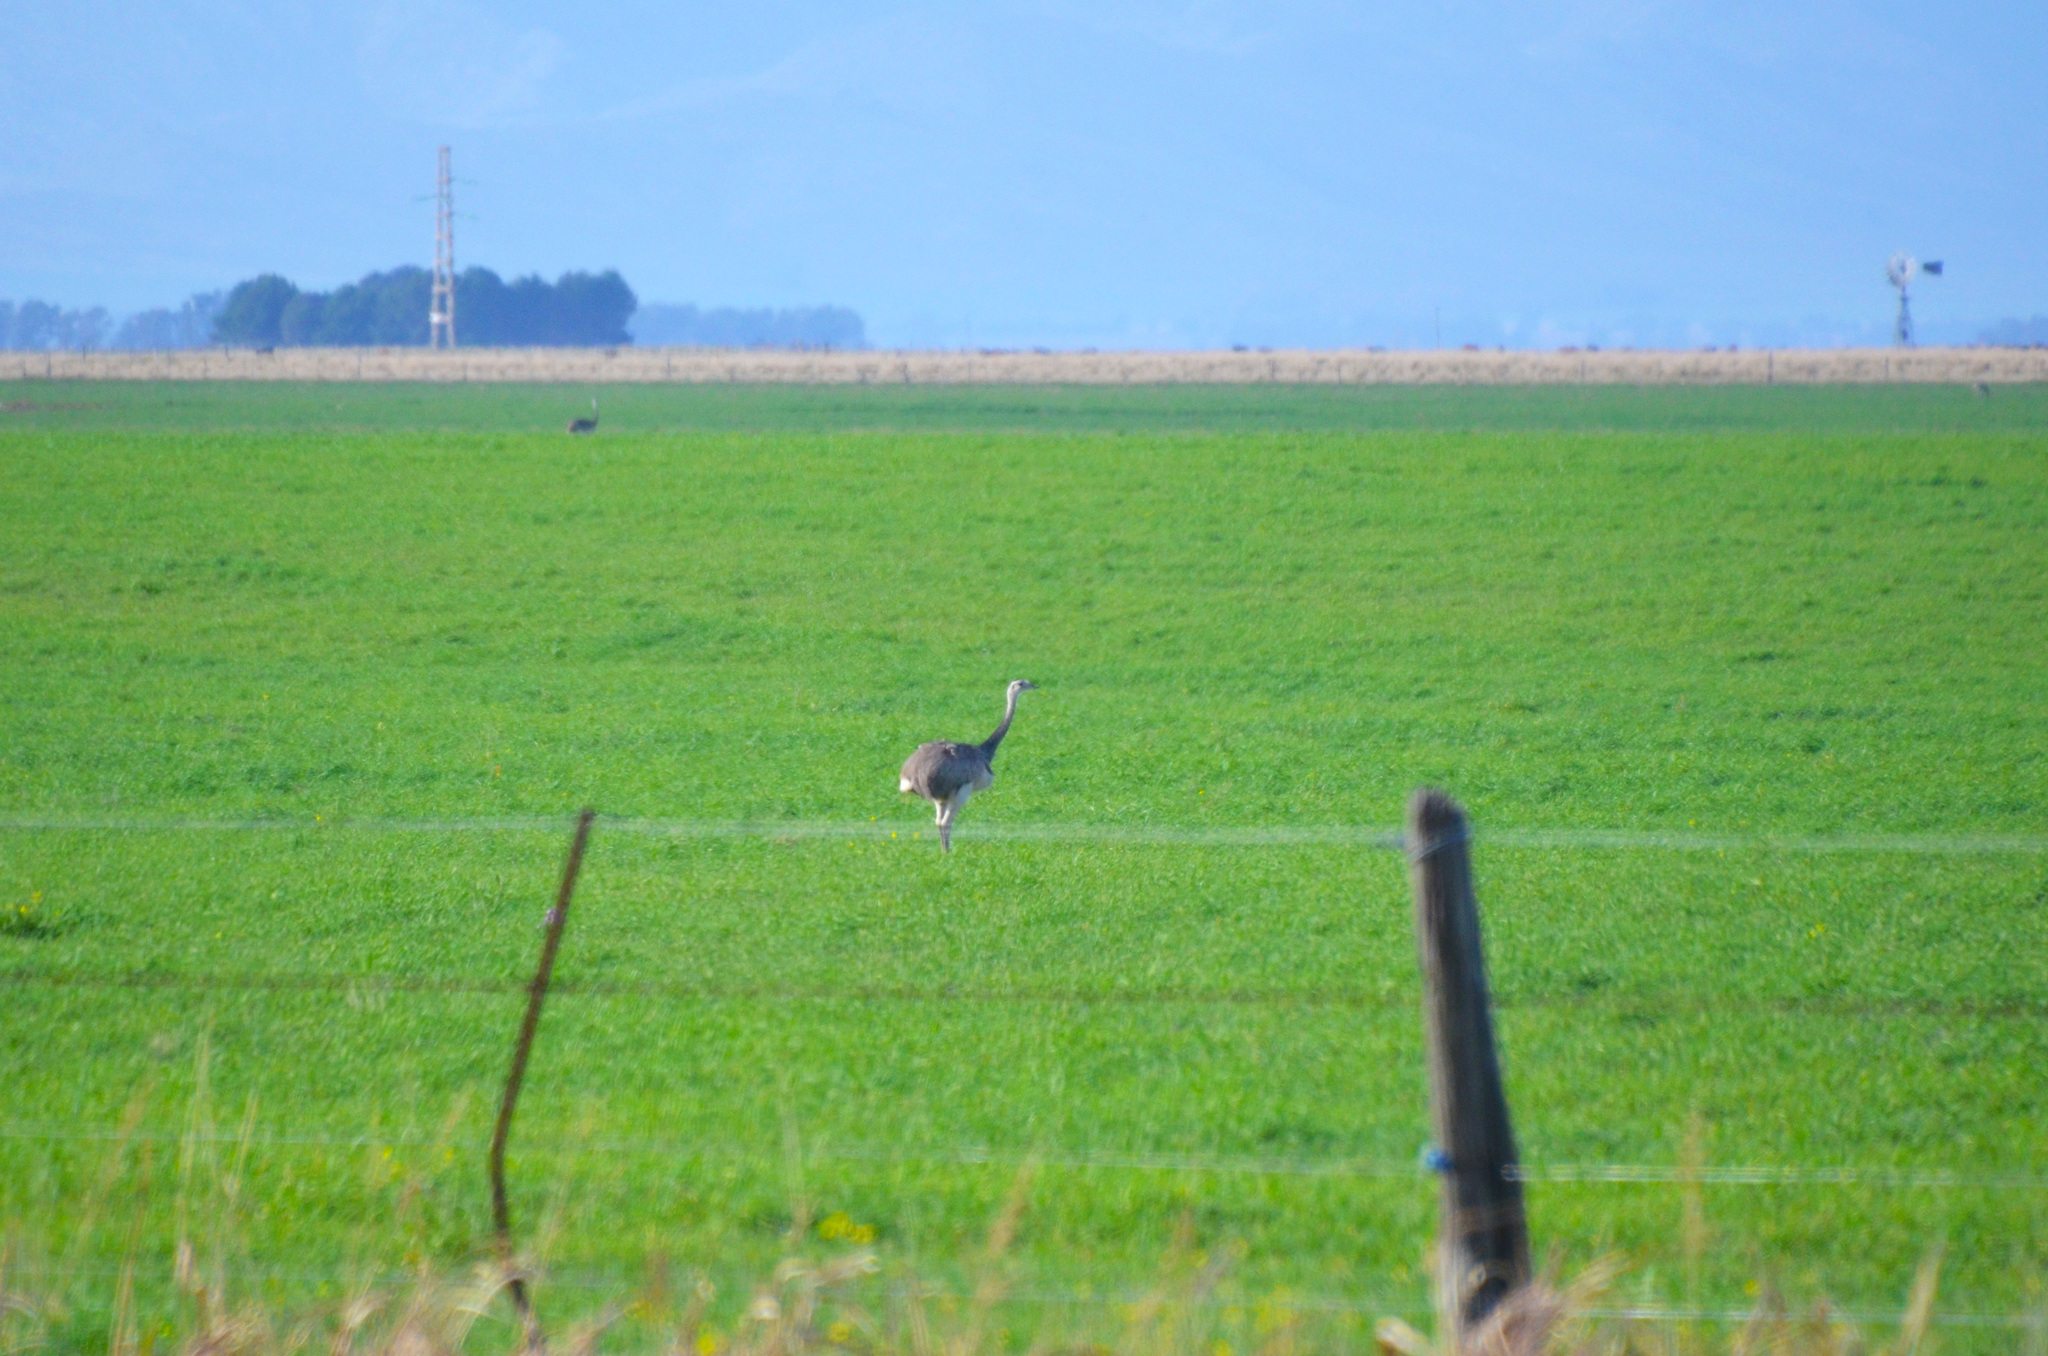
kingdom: Animalia
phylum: Chordata
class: Aves
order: Rheiformes
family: Rheidae
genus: Rhea
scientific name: Rhea americana
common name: Greater rhea
